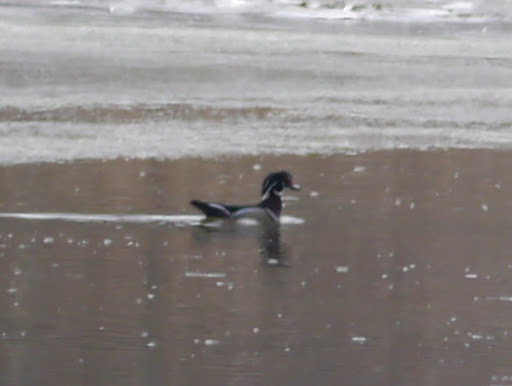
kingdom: Animalia
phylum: Chordata
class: Aves
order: Anseriformes
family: Anatidae
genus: Aix
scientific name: Aix sponsa
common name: Wood duck
